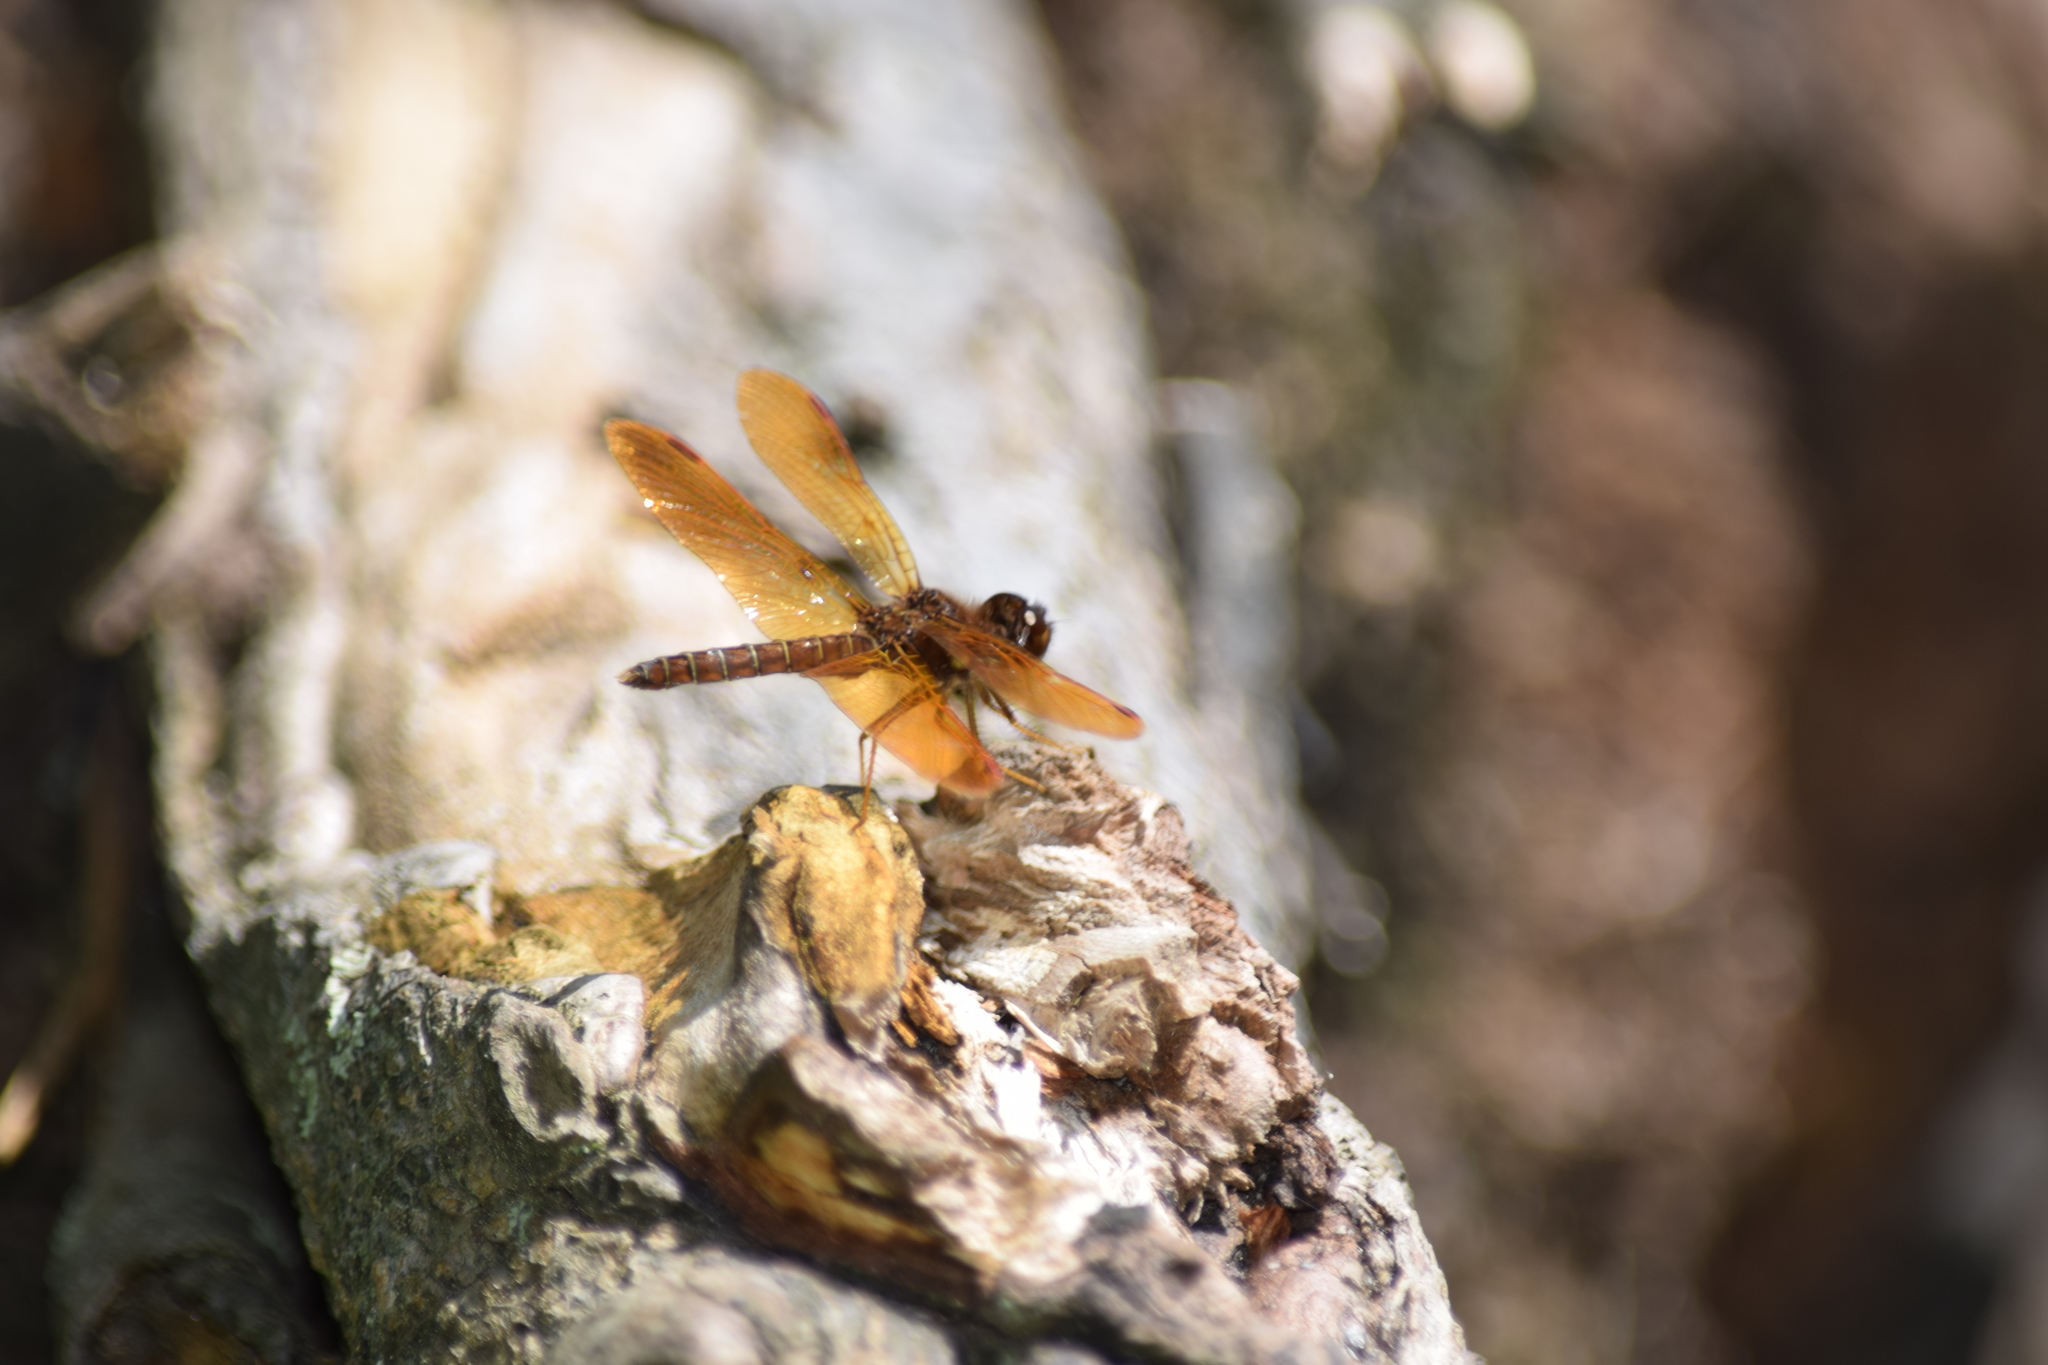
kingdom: Animalia
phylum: Arthropoda
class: Insecta
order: Odonata
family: Libellulidae
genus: Perithemis
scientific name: Perithemis tenera
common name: Eastern amberwing
